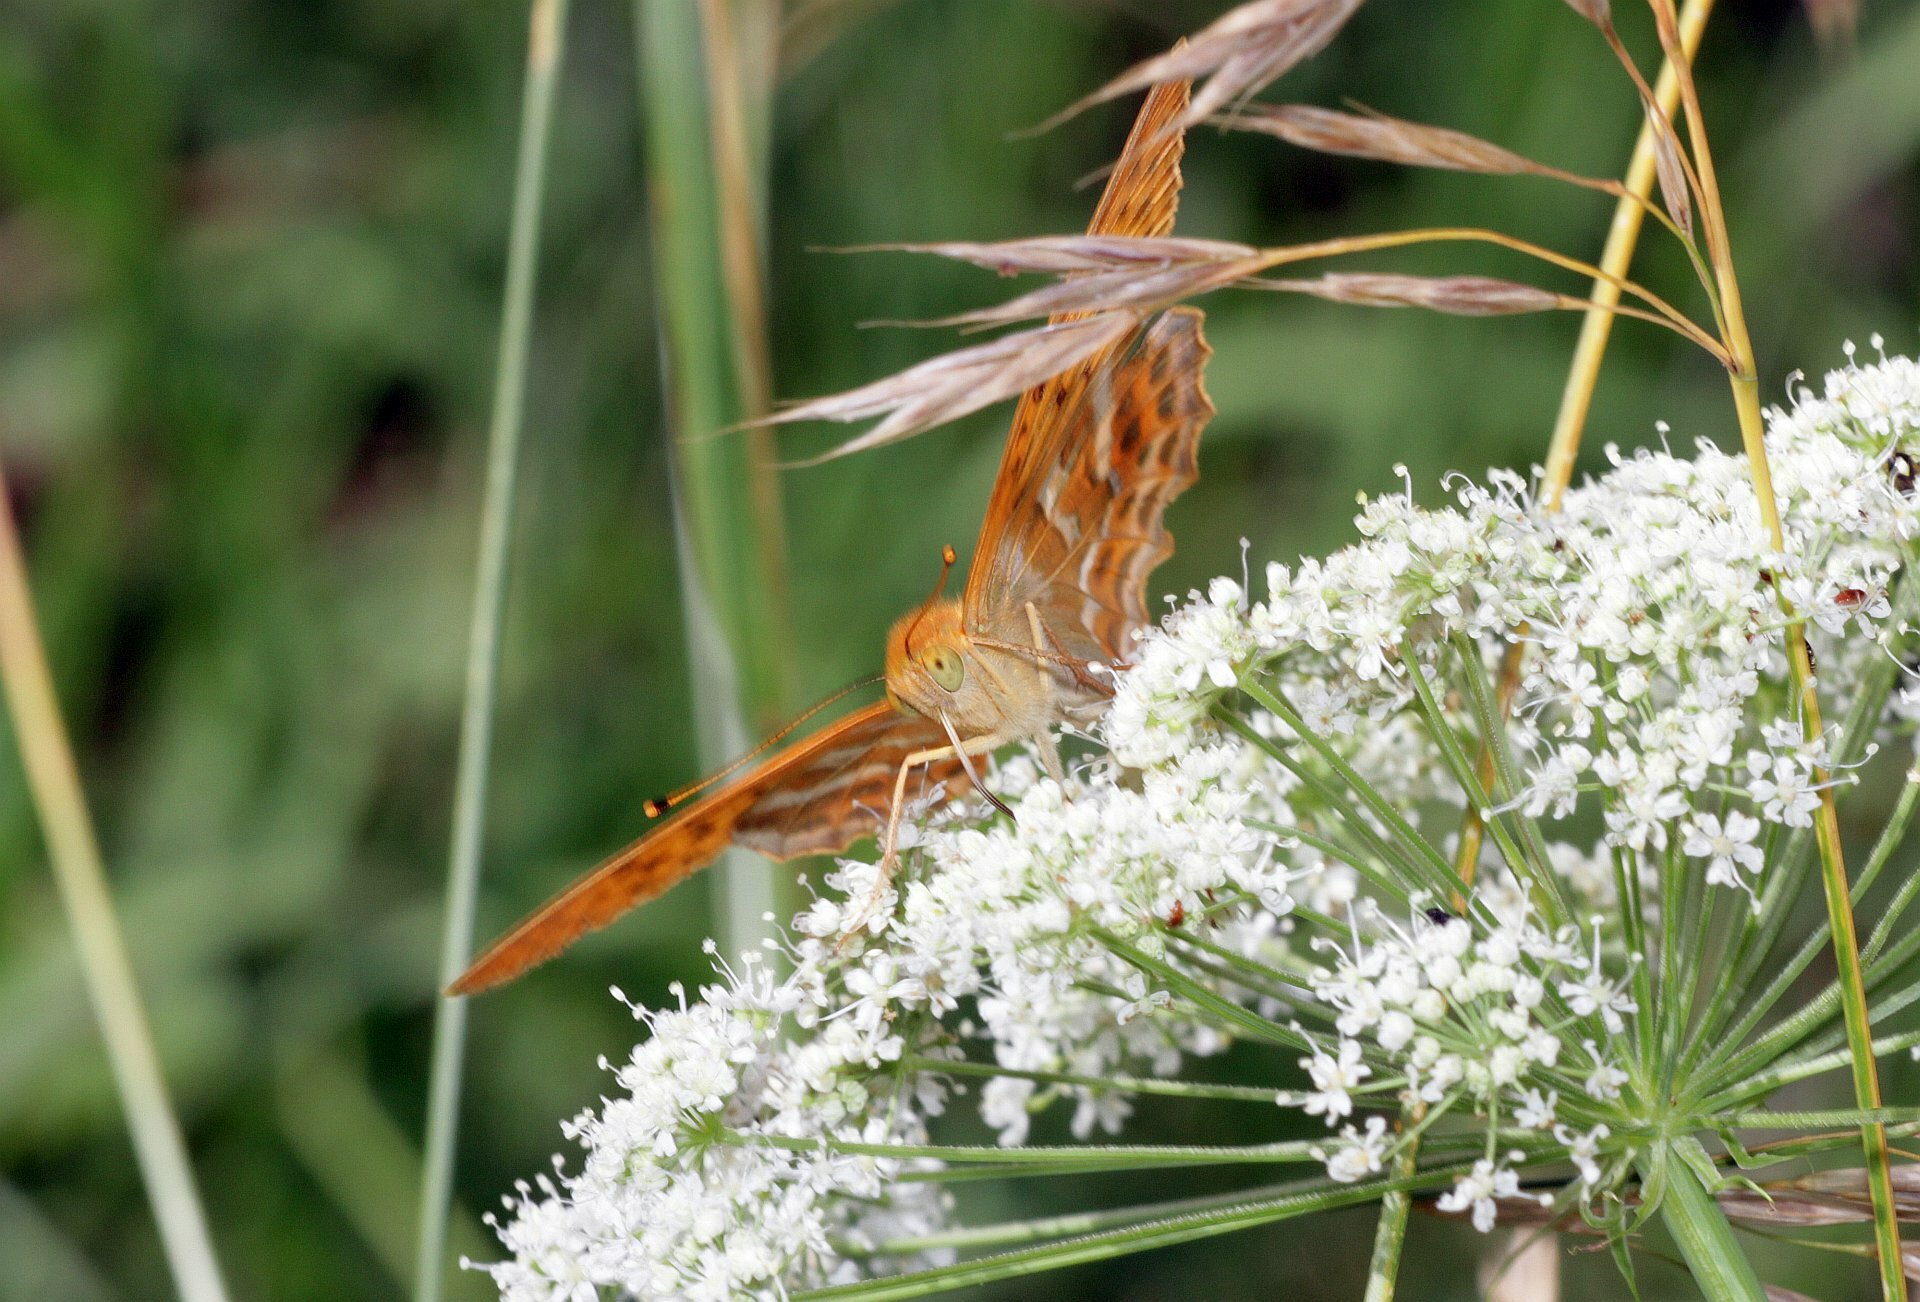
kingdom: Animalia
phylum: Arthropoda
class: Insecta
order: Lepidoptera
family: Nymphalidae
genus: Argynnis
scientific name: Argynnis paphia
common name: Silver-washed fritillary
